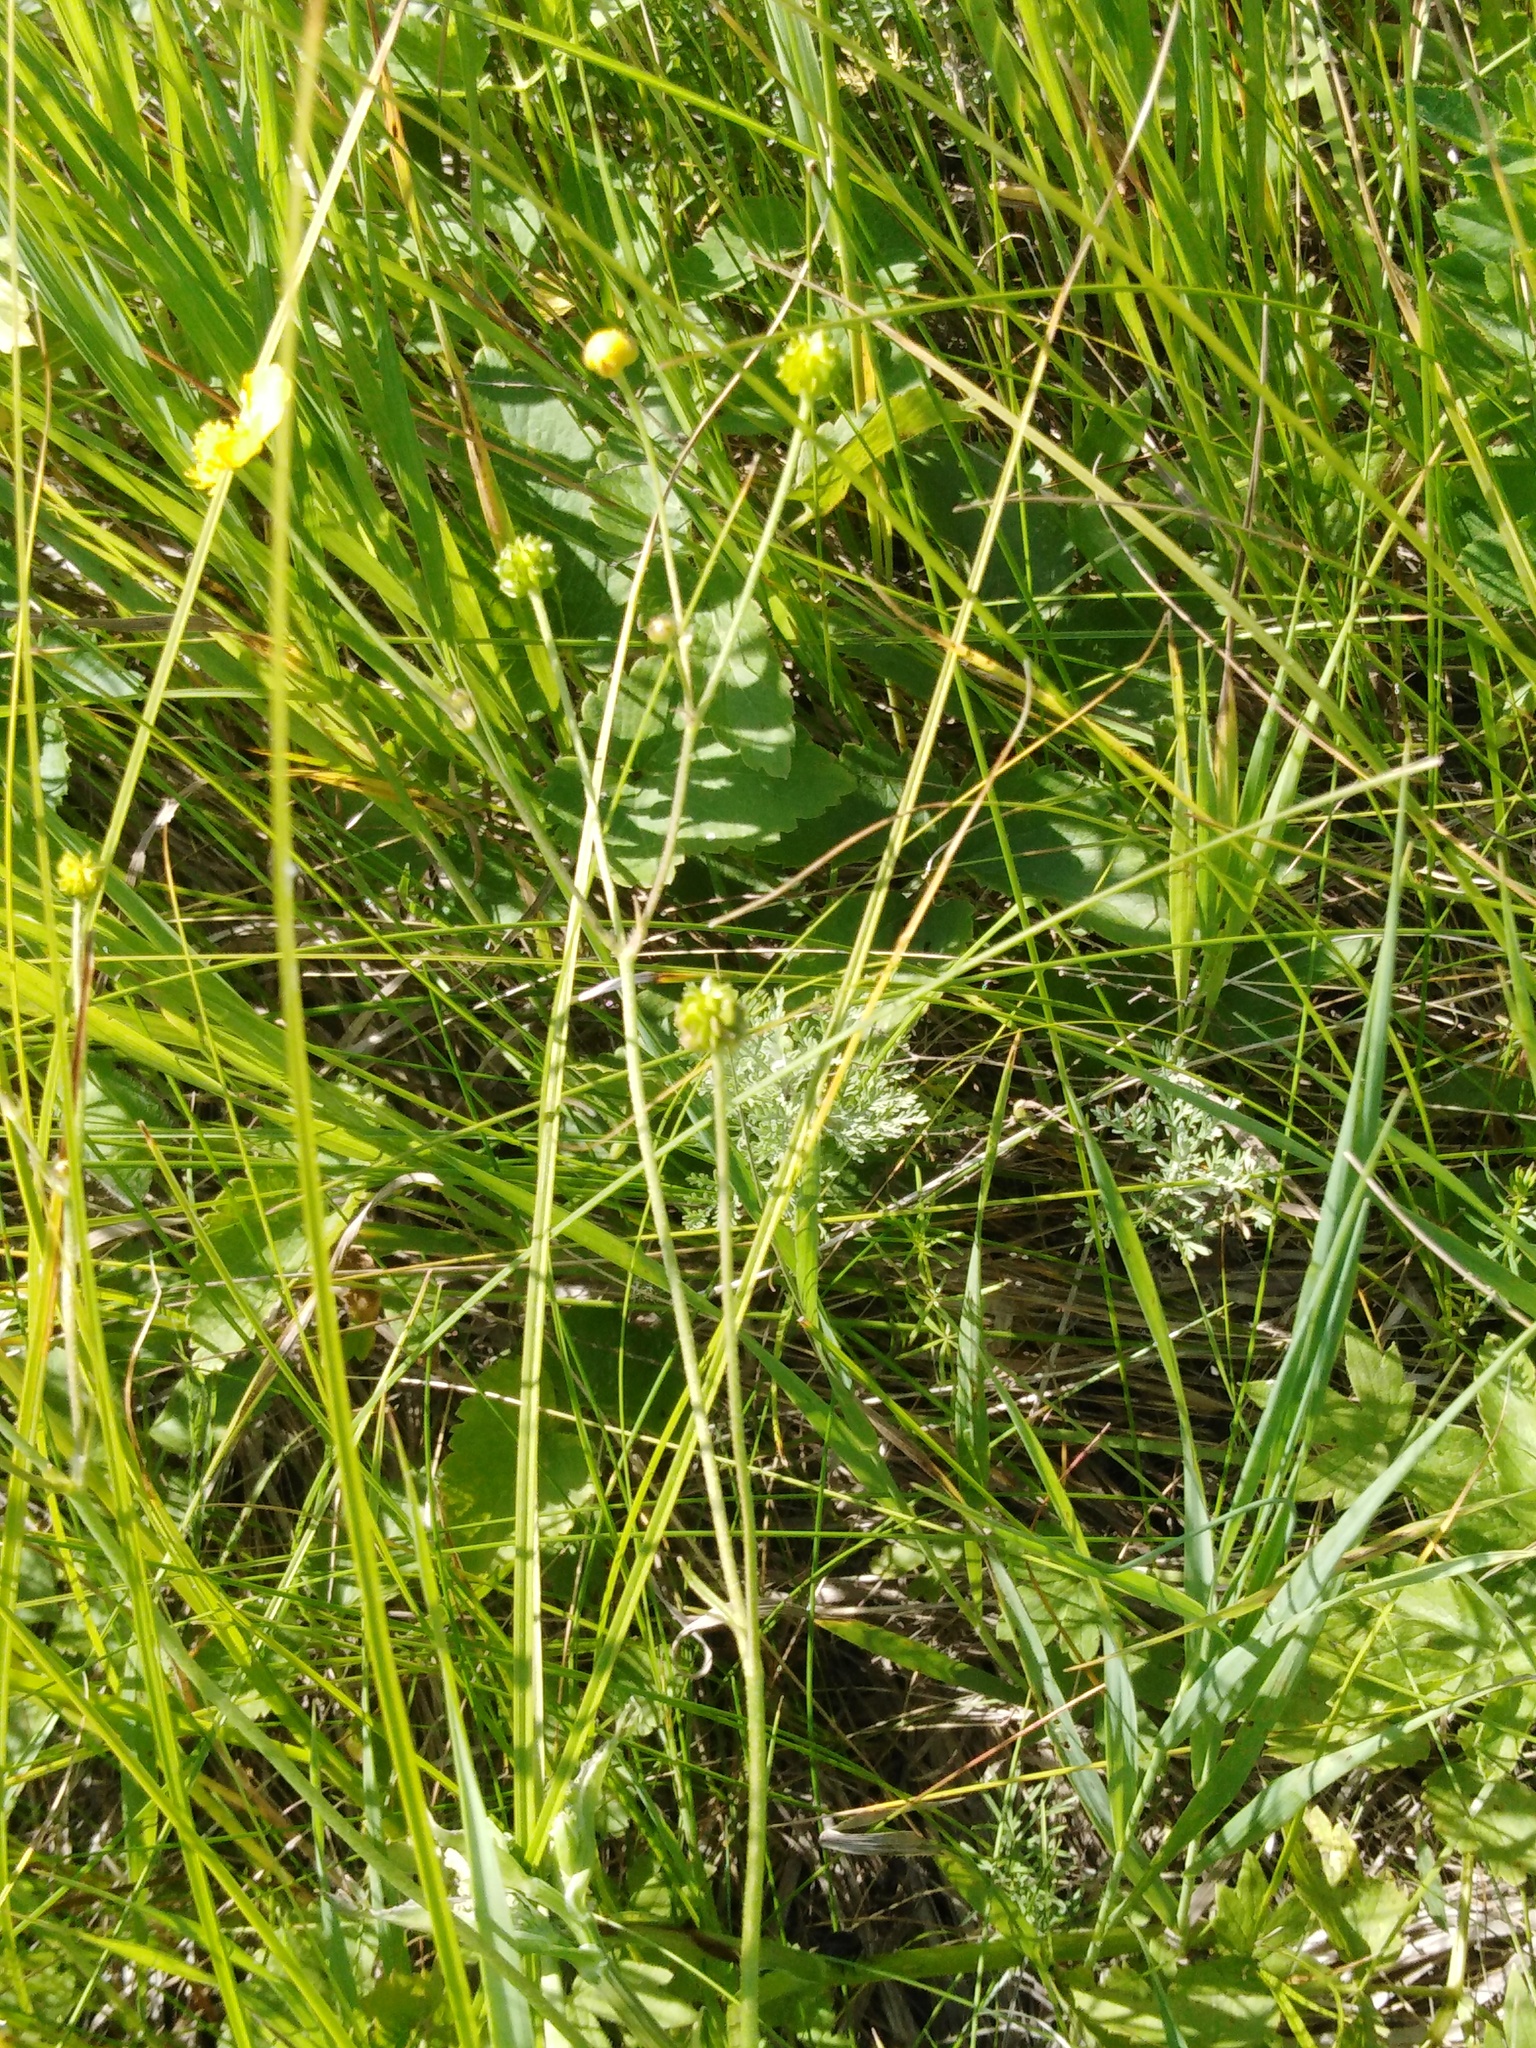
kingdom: Plantae
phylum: Tracheophyta
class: Magnoliopsida
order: Ranunculales
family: Ranunculaceae
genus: Ranunculus
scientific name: Ranunculus acris
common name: Meadow buttercup
